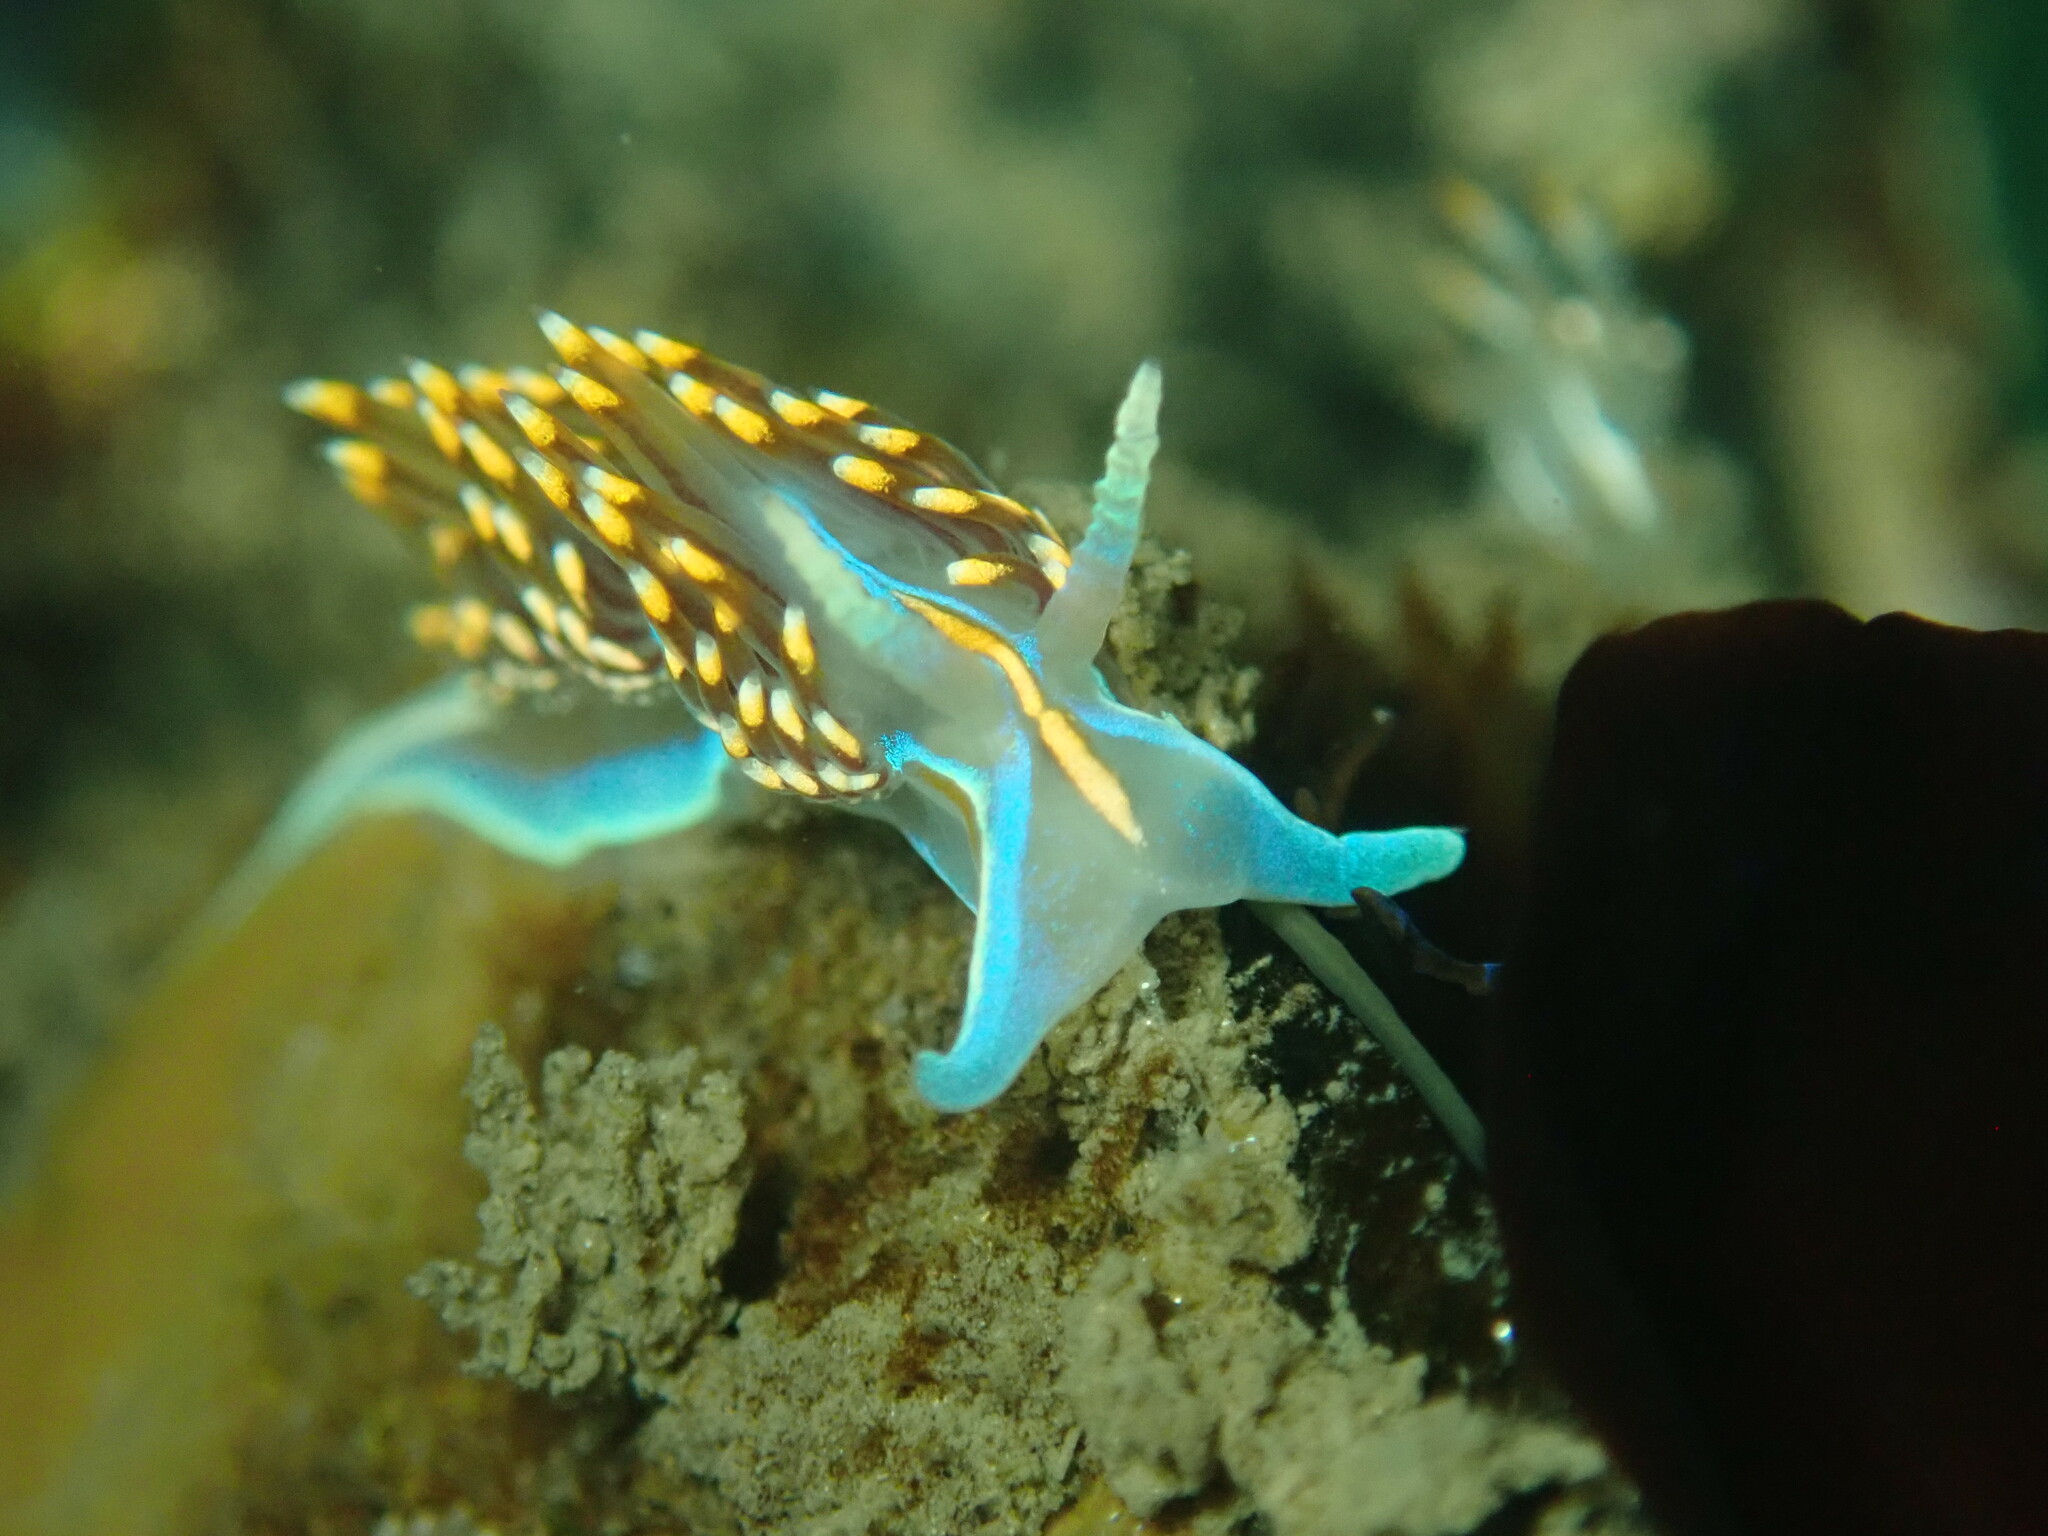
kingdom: Animalia
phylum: Mollusca
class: Gastropoda
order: Nudibranchia
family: Myrrhinidae
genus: Hermissenda
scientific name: Hermissenda opalescens
